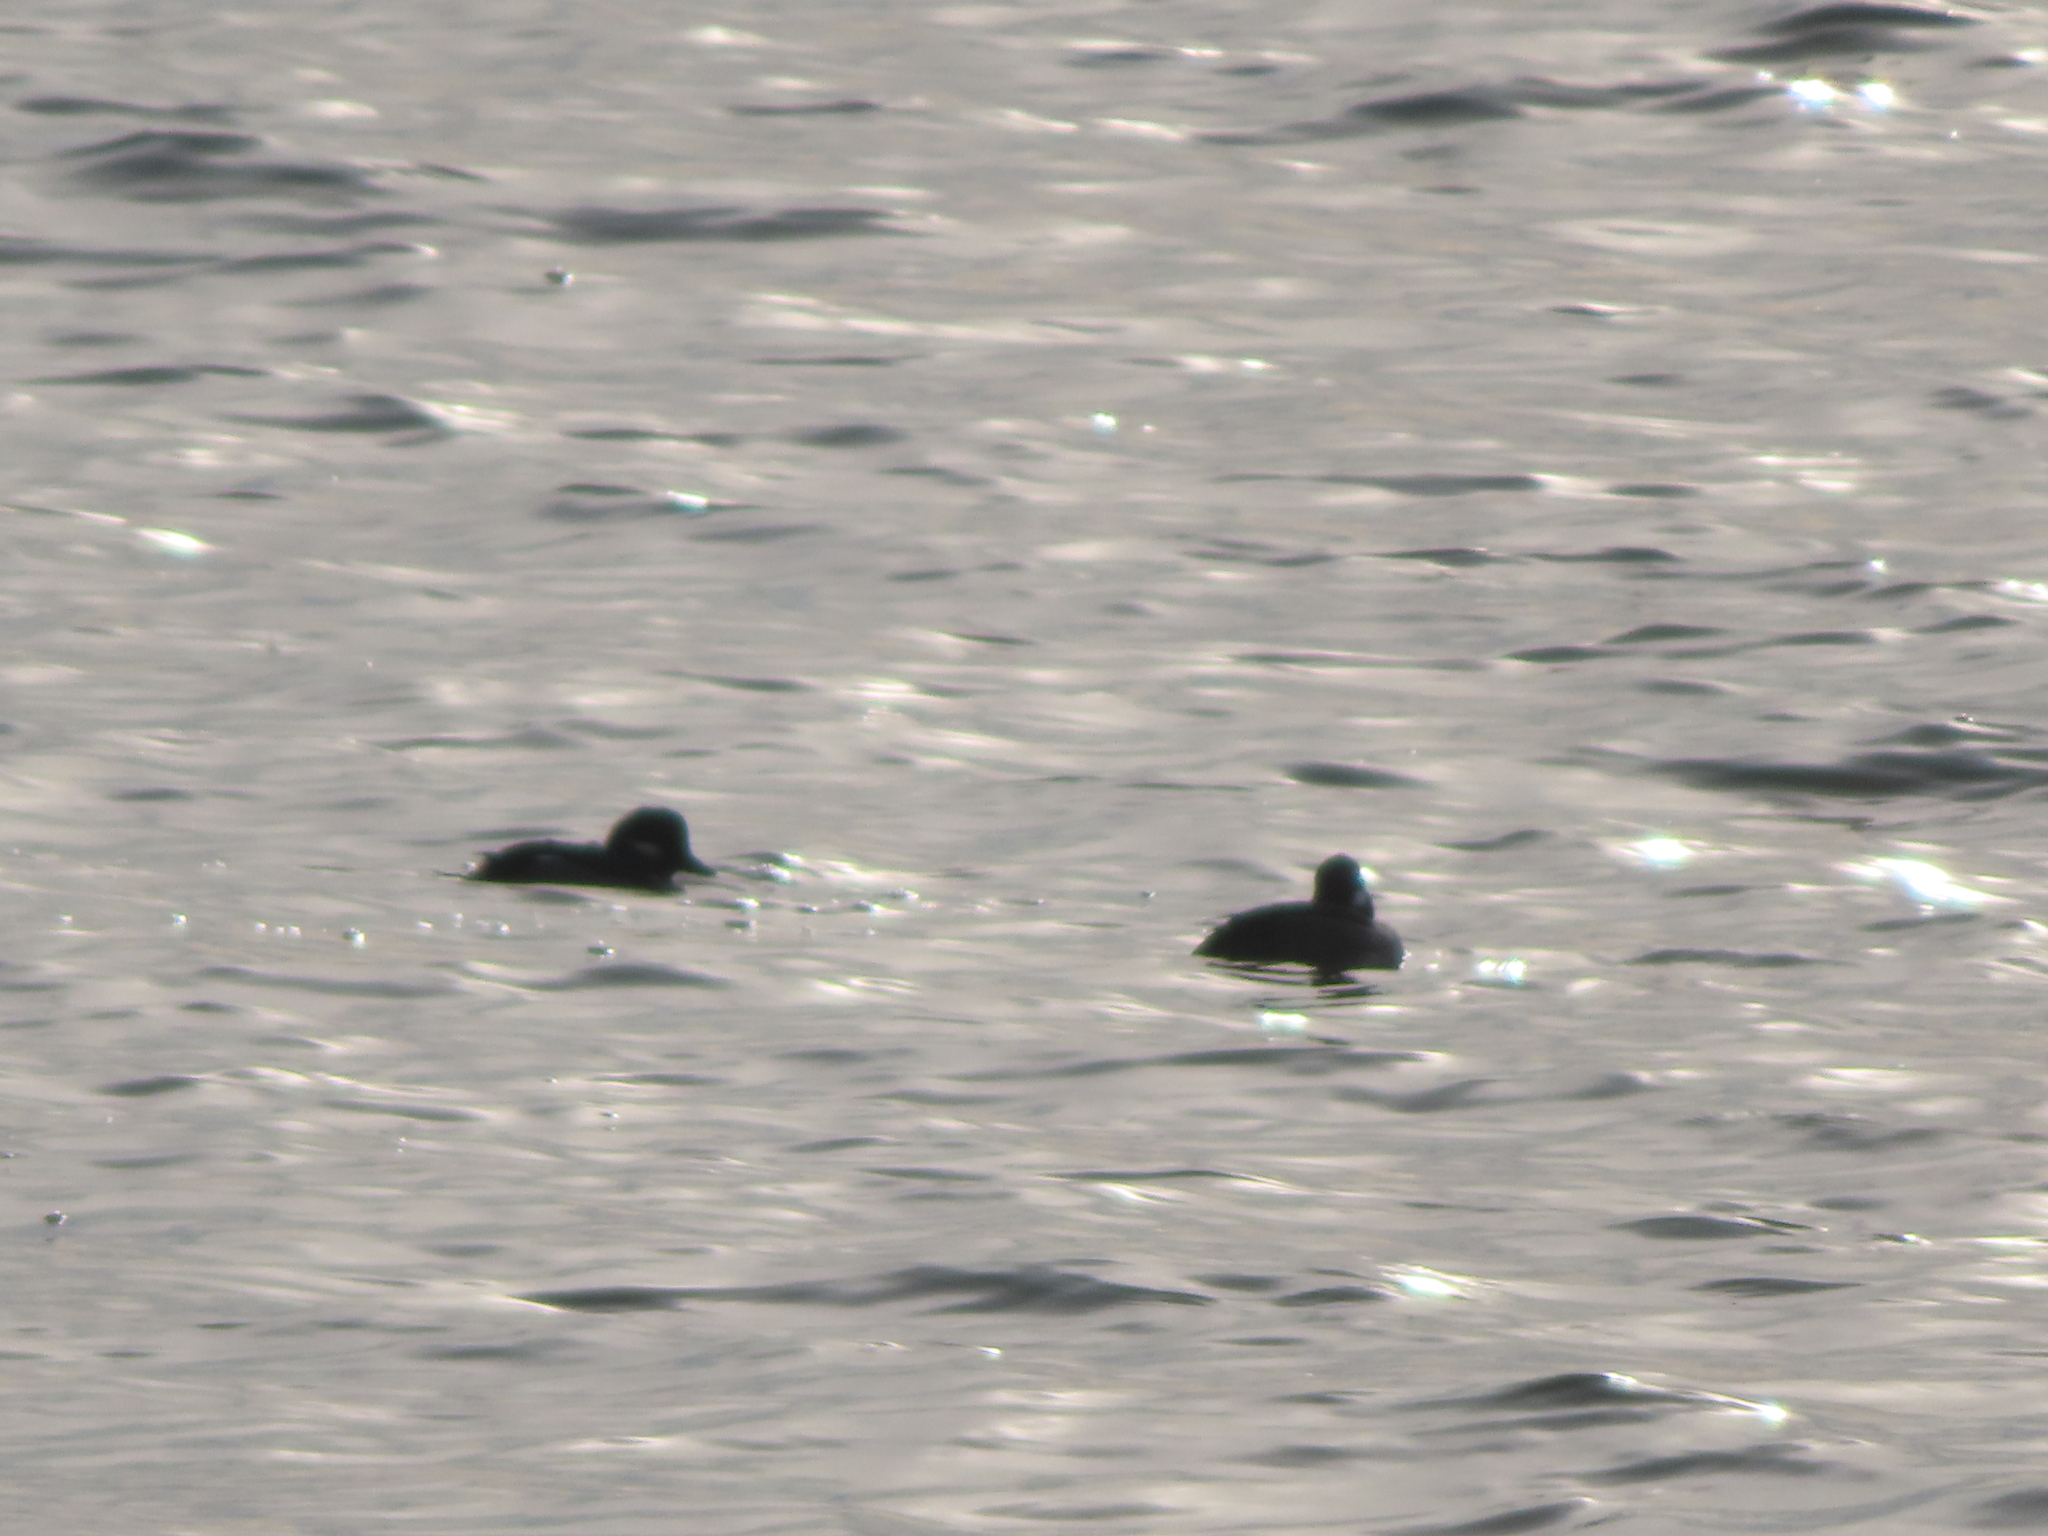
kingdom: Animalia
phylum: Chordata
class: Aves
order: Anseriformes
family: Anatidae
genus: Bucephala
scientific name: Bucephala albeola
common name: Bufflehead
